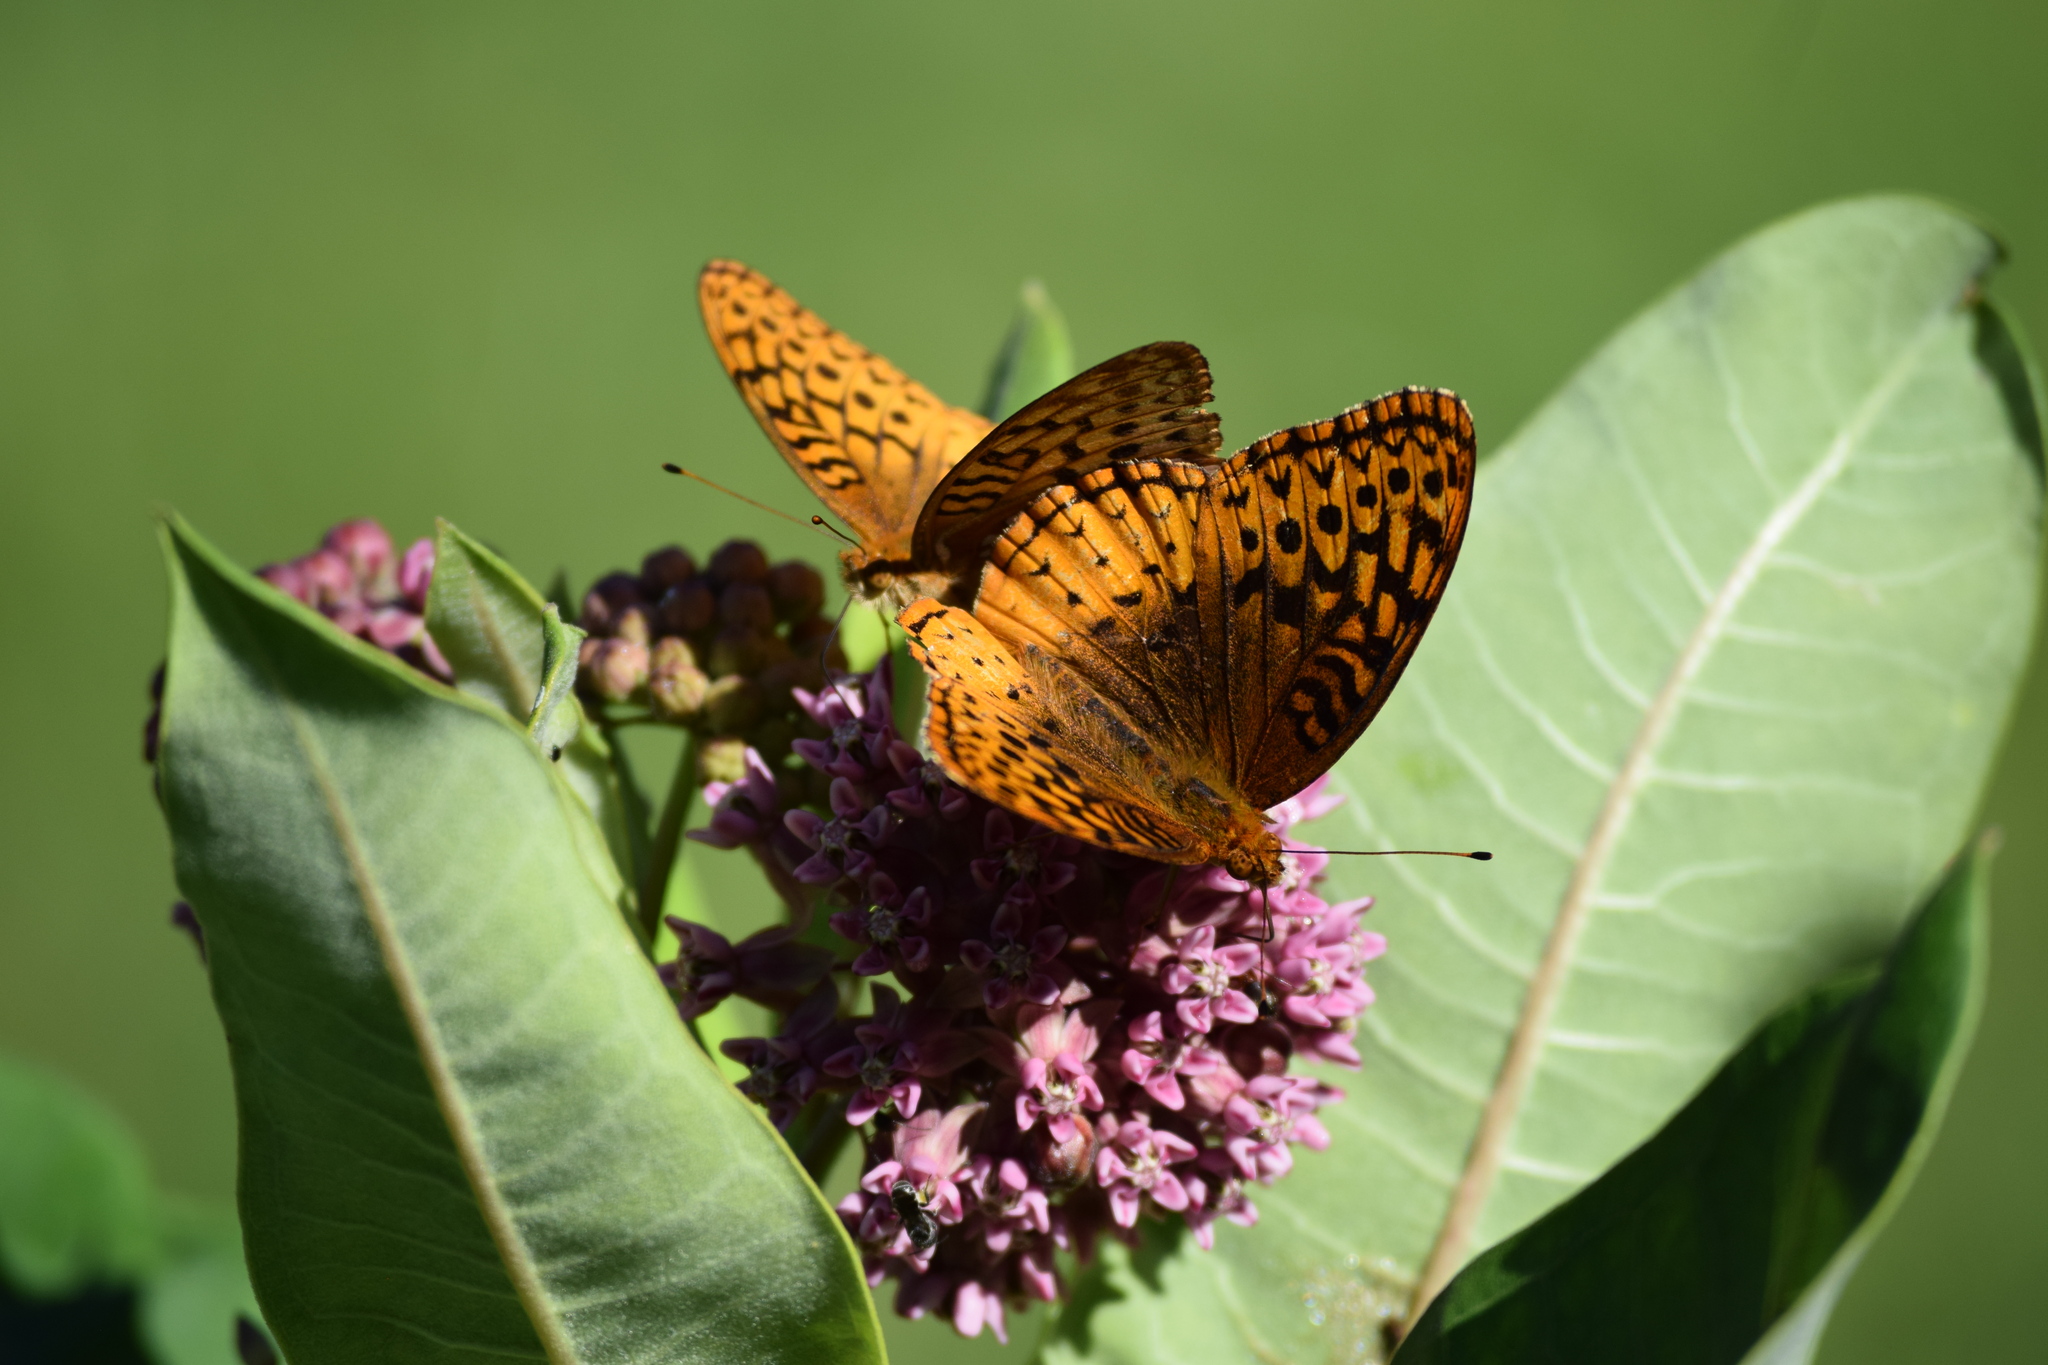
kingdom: Animalia
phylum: Arthropoda
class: Insecta
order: Lepidoptera
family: Nymphalidae
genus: Speyeria
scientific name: Speyeria cybele
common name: Great spangled fritillary
